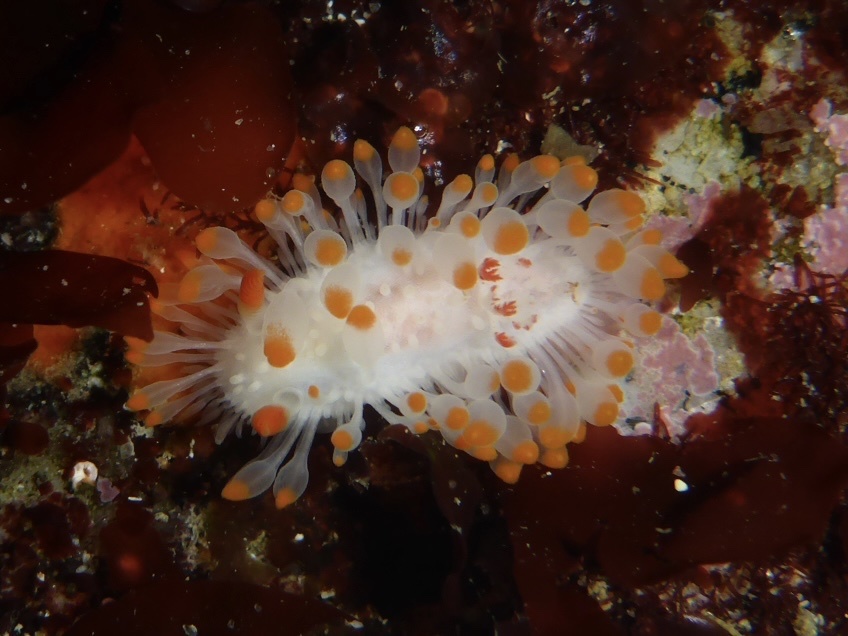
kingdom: Animalia
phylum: Mollusca
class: Gastropoda
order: Nudibranchia
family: Polyceridae
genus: Limacia
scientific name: Limacia cockerelli
